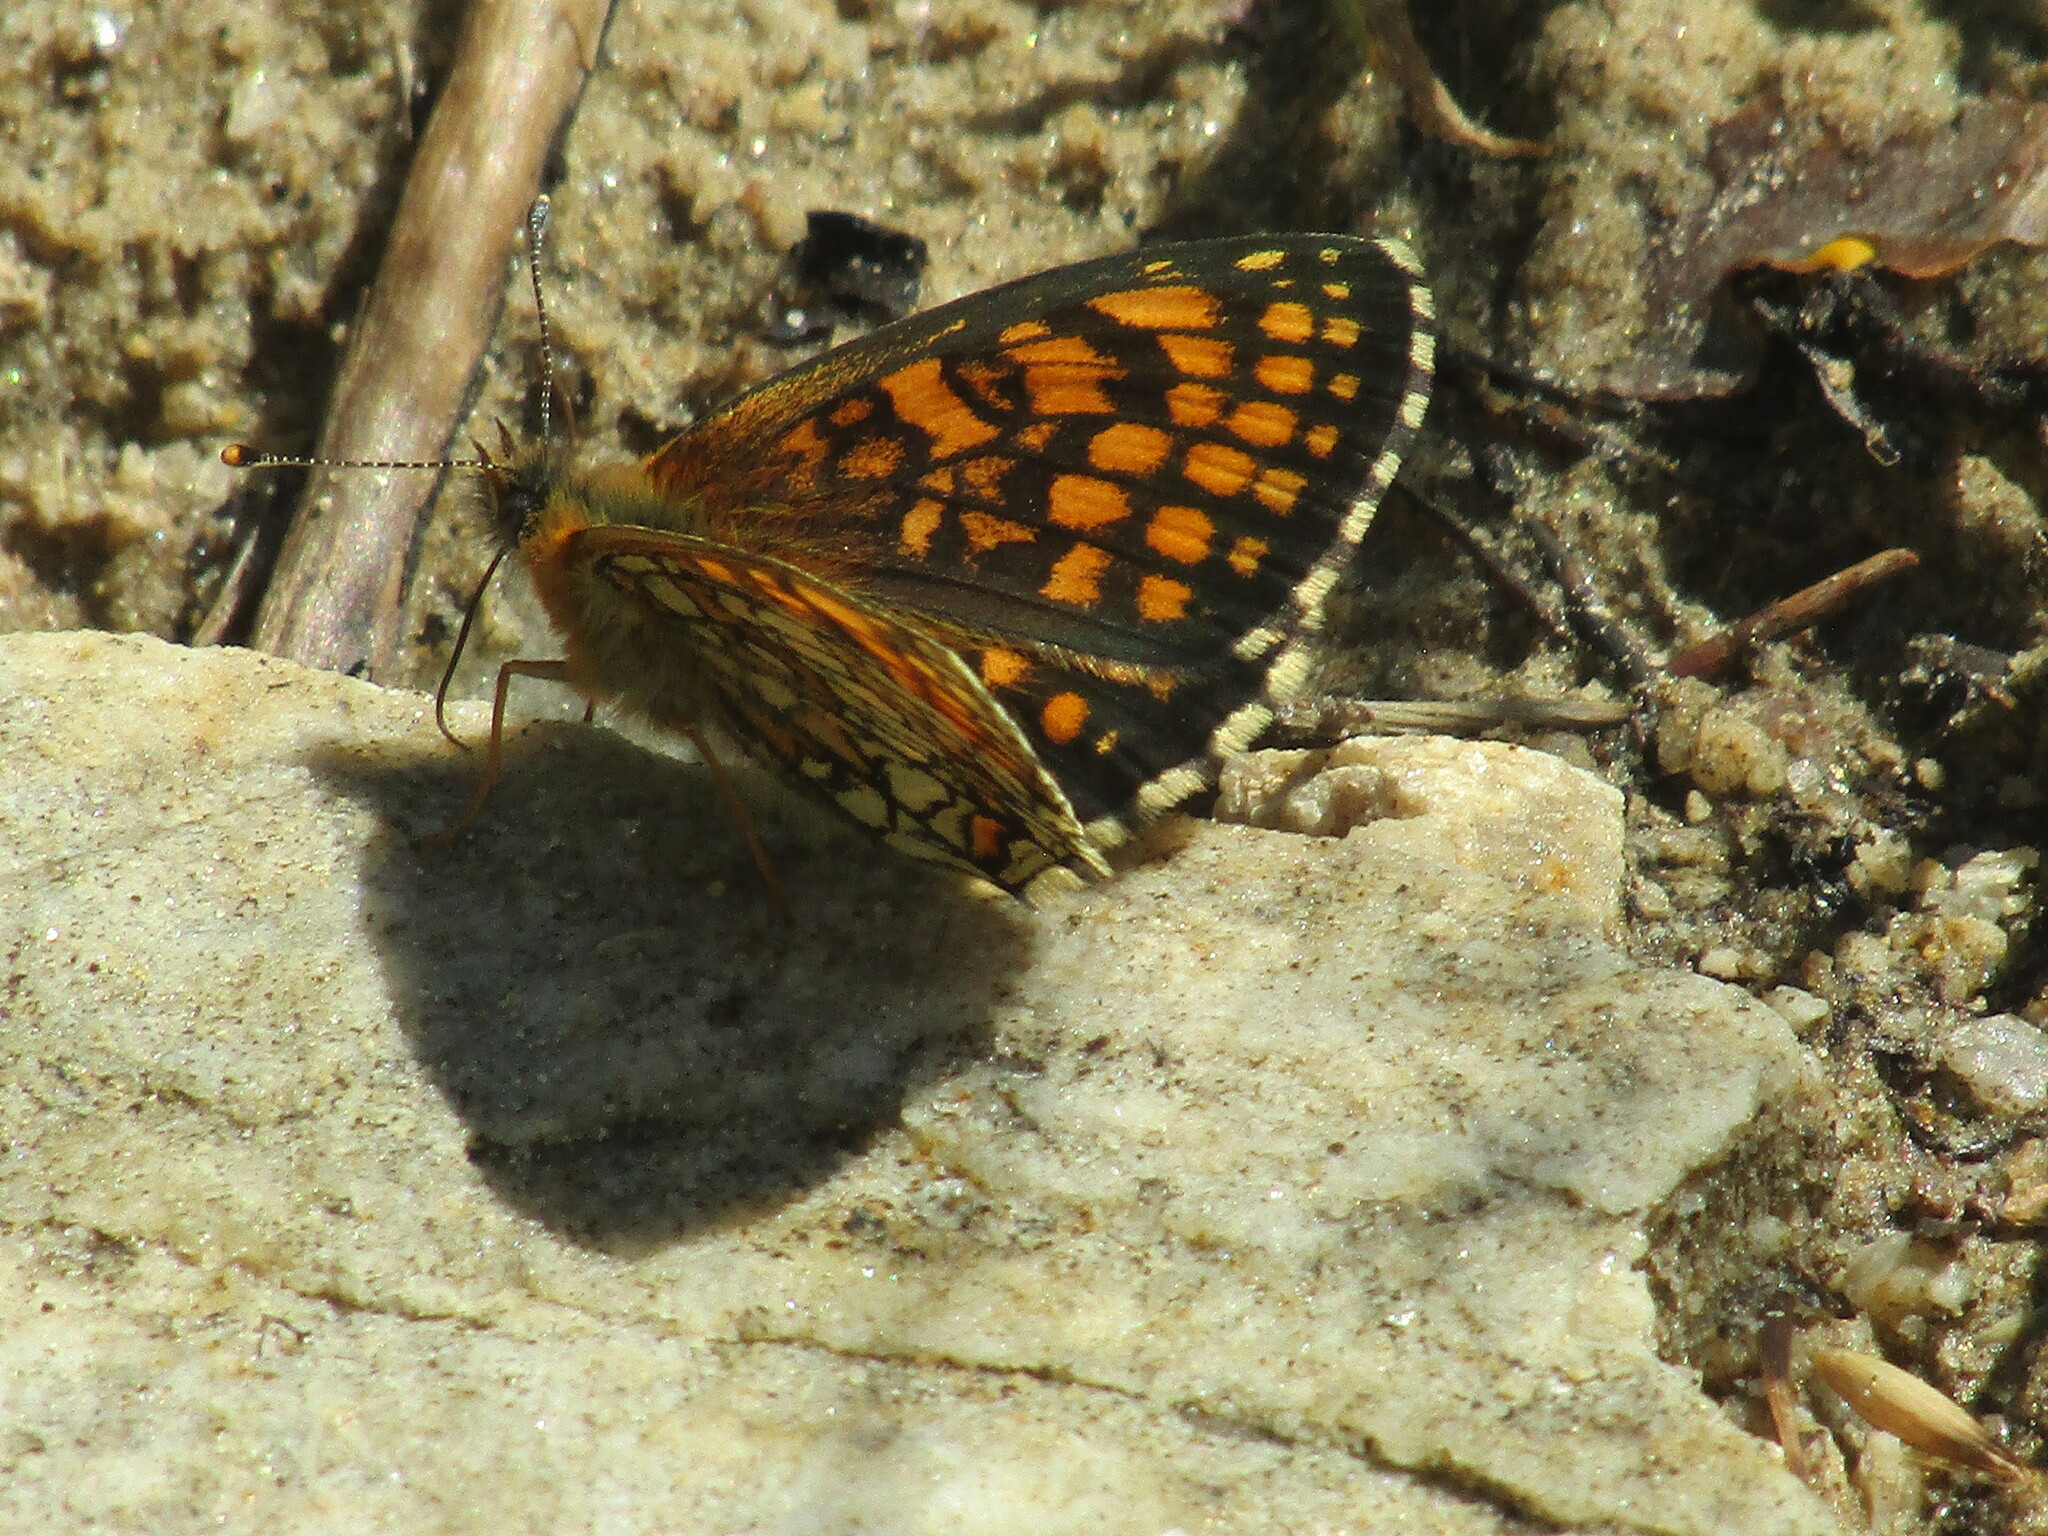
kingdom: Animalia
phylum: Arthropoda
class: Insecta
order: Lepidoptera
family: Nymphalidae
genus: Melitaea
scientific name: Melitaea athalia
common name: Heath fritillary
